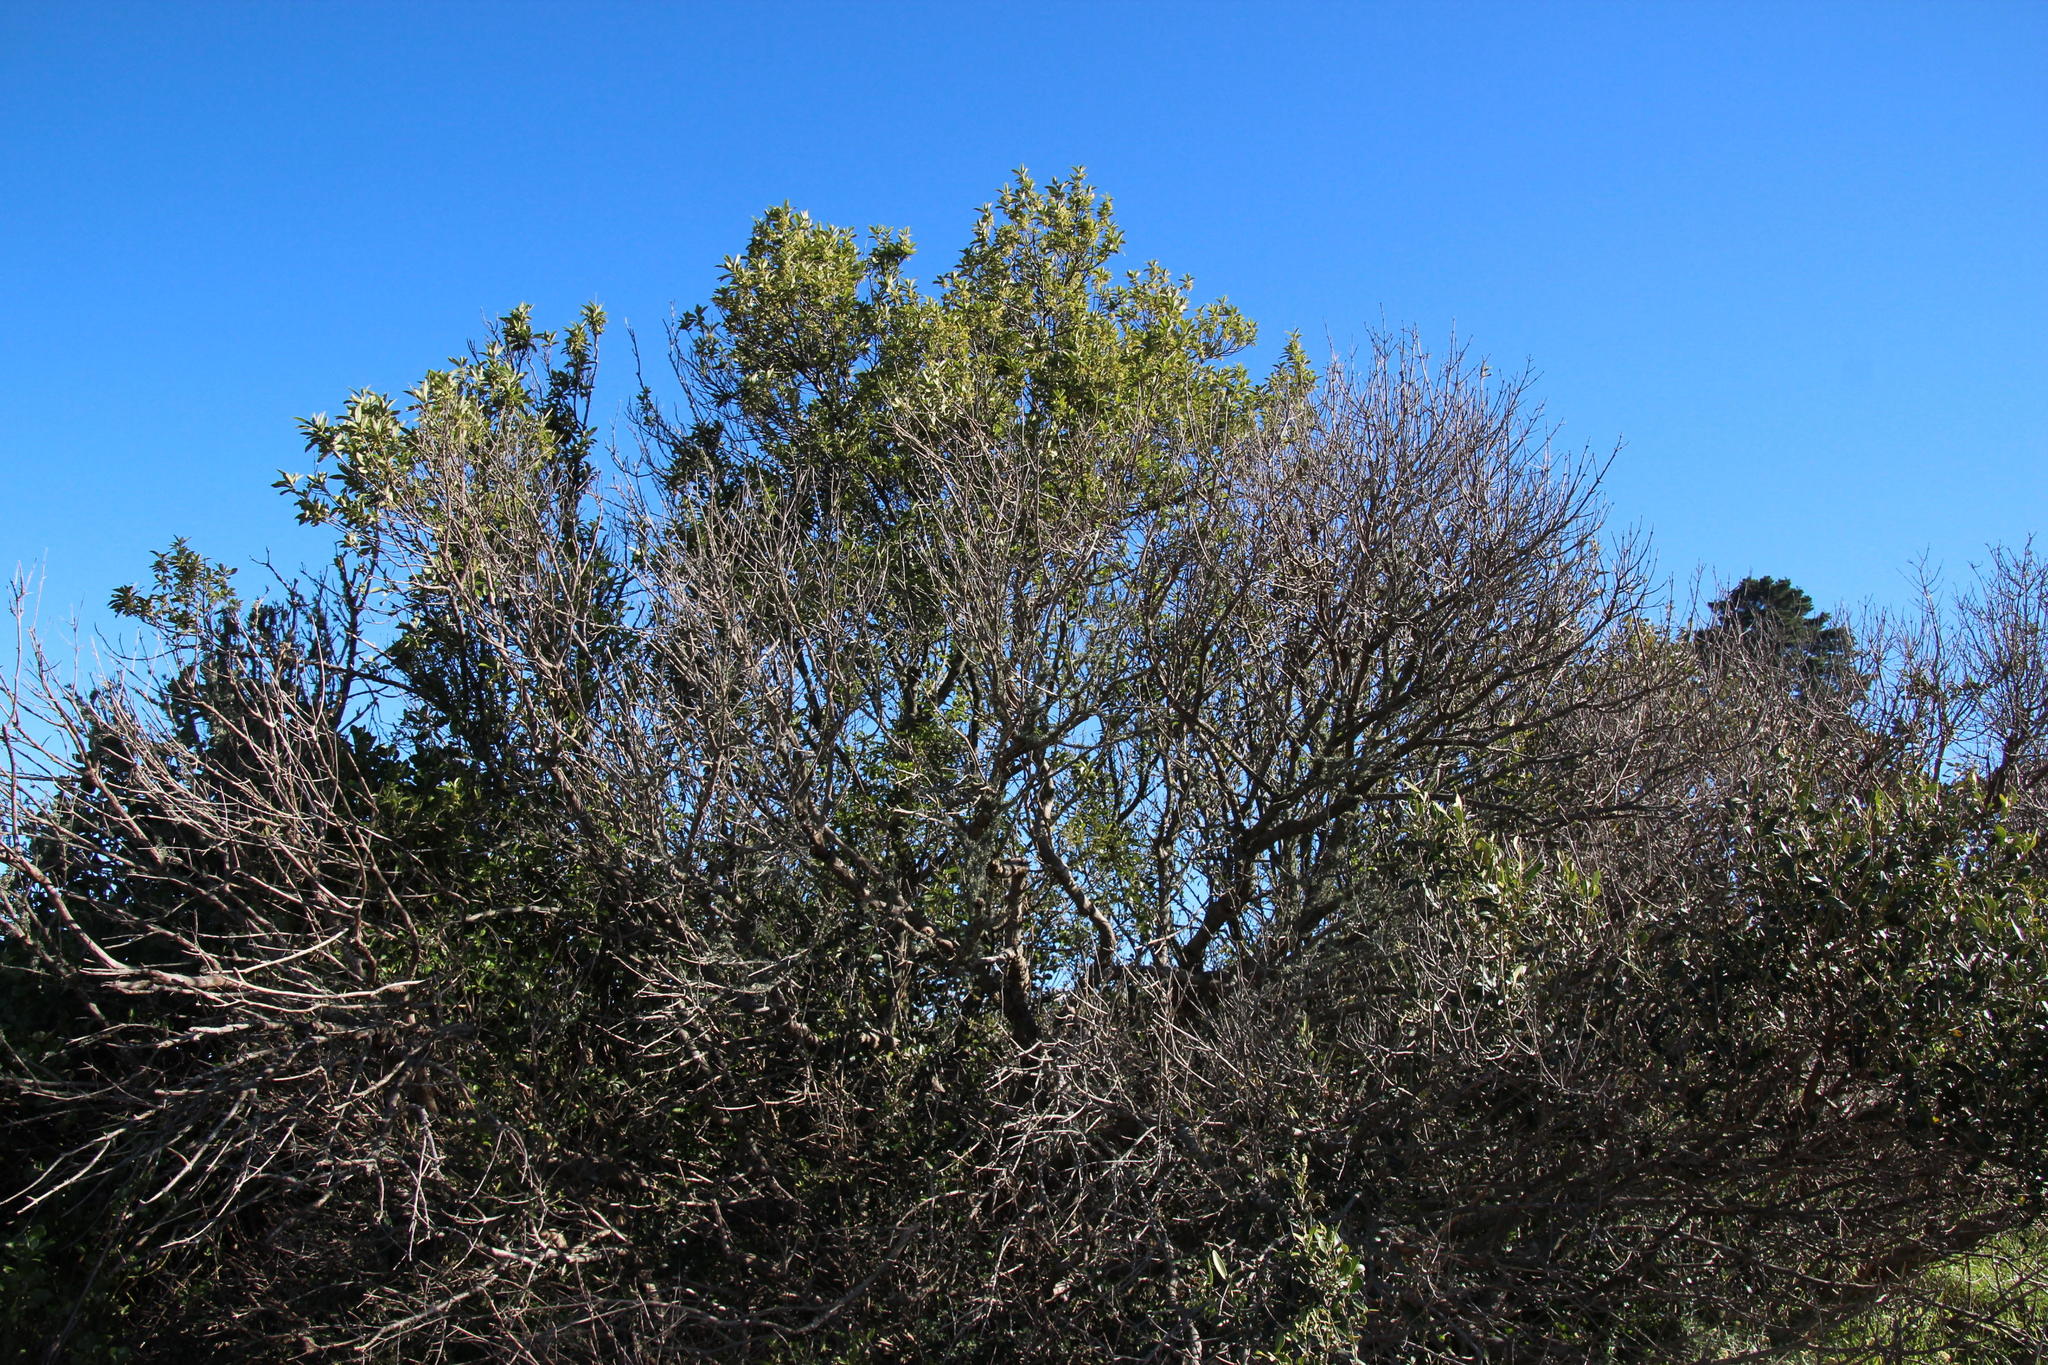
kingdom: Plantae
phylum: Tracheophyta
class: Magnoliopsida
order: Malpighiales
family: Achariaceae
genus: Kiggelaria
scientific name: Kiggelaria africana
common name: Wild peach
